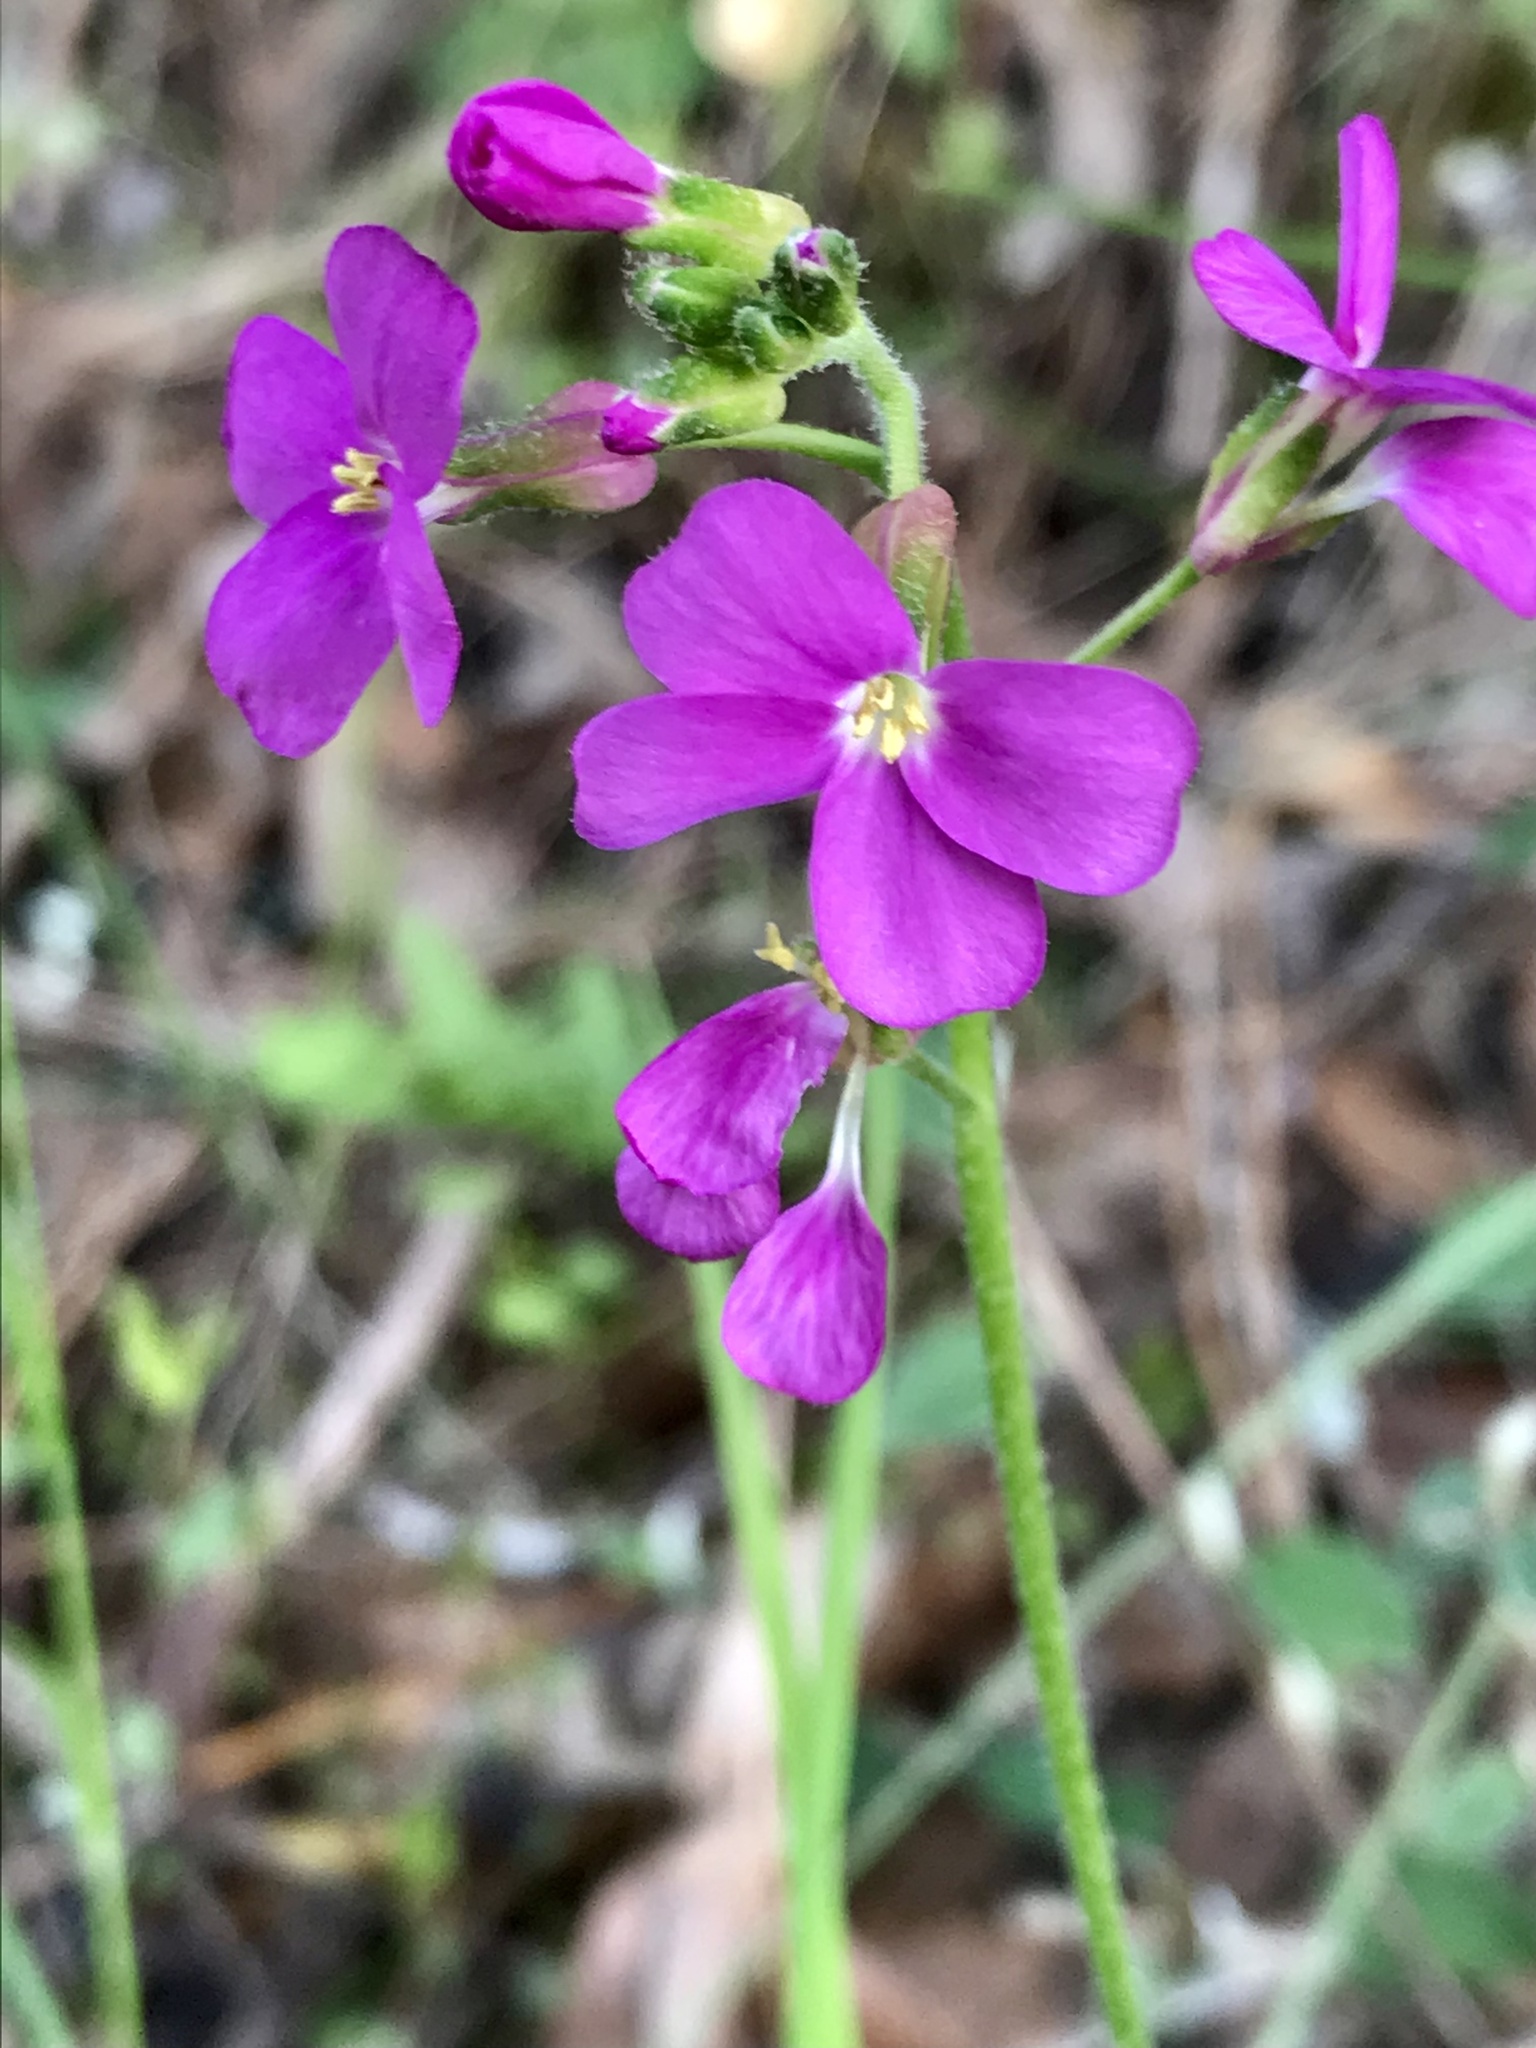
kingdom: Plantae
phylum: Tracheophyta
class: Magnoliopsida
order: Brassicales
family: Brassicaceae
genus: Arabis
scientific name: Arabis blepharophylla
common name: Rose rockcress
